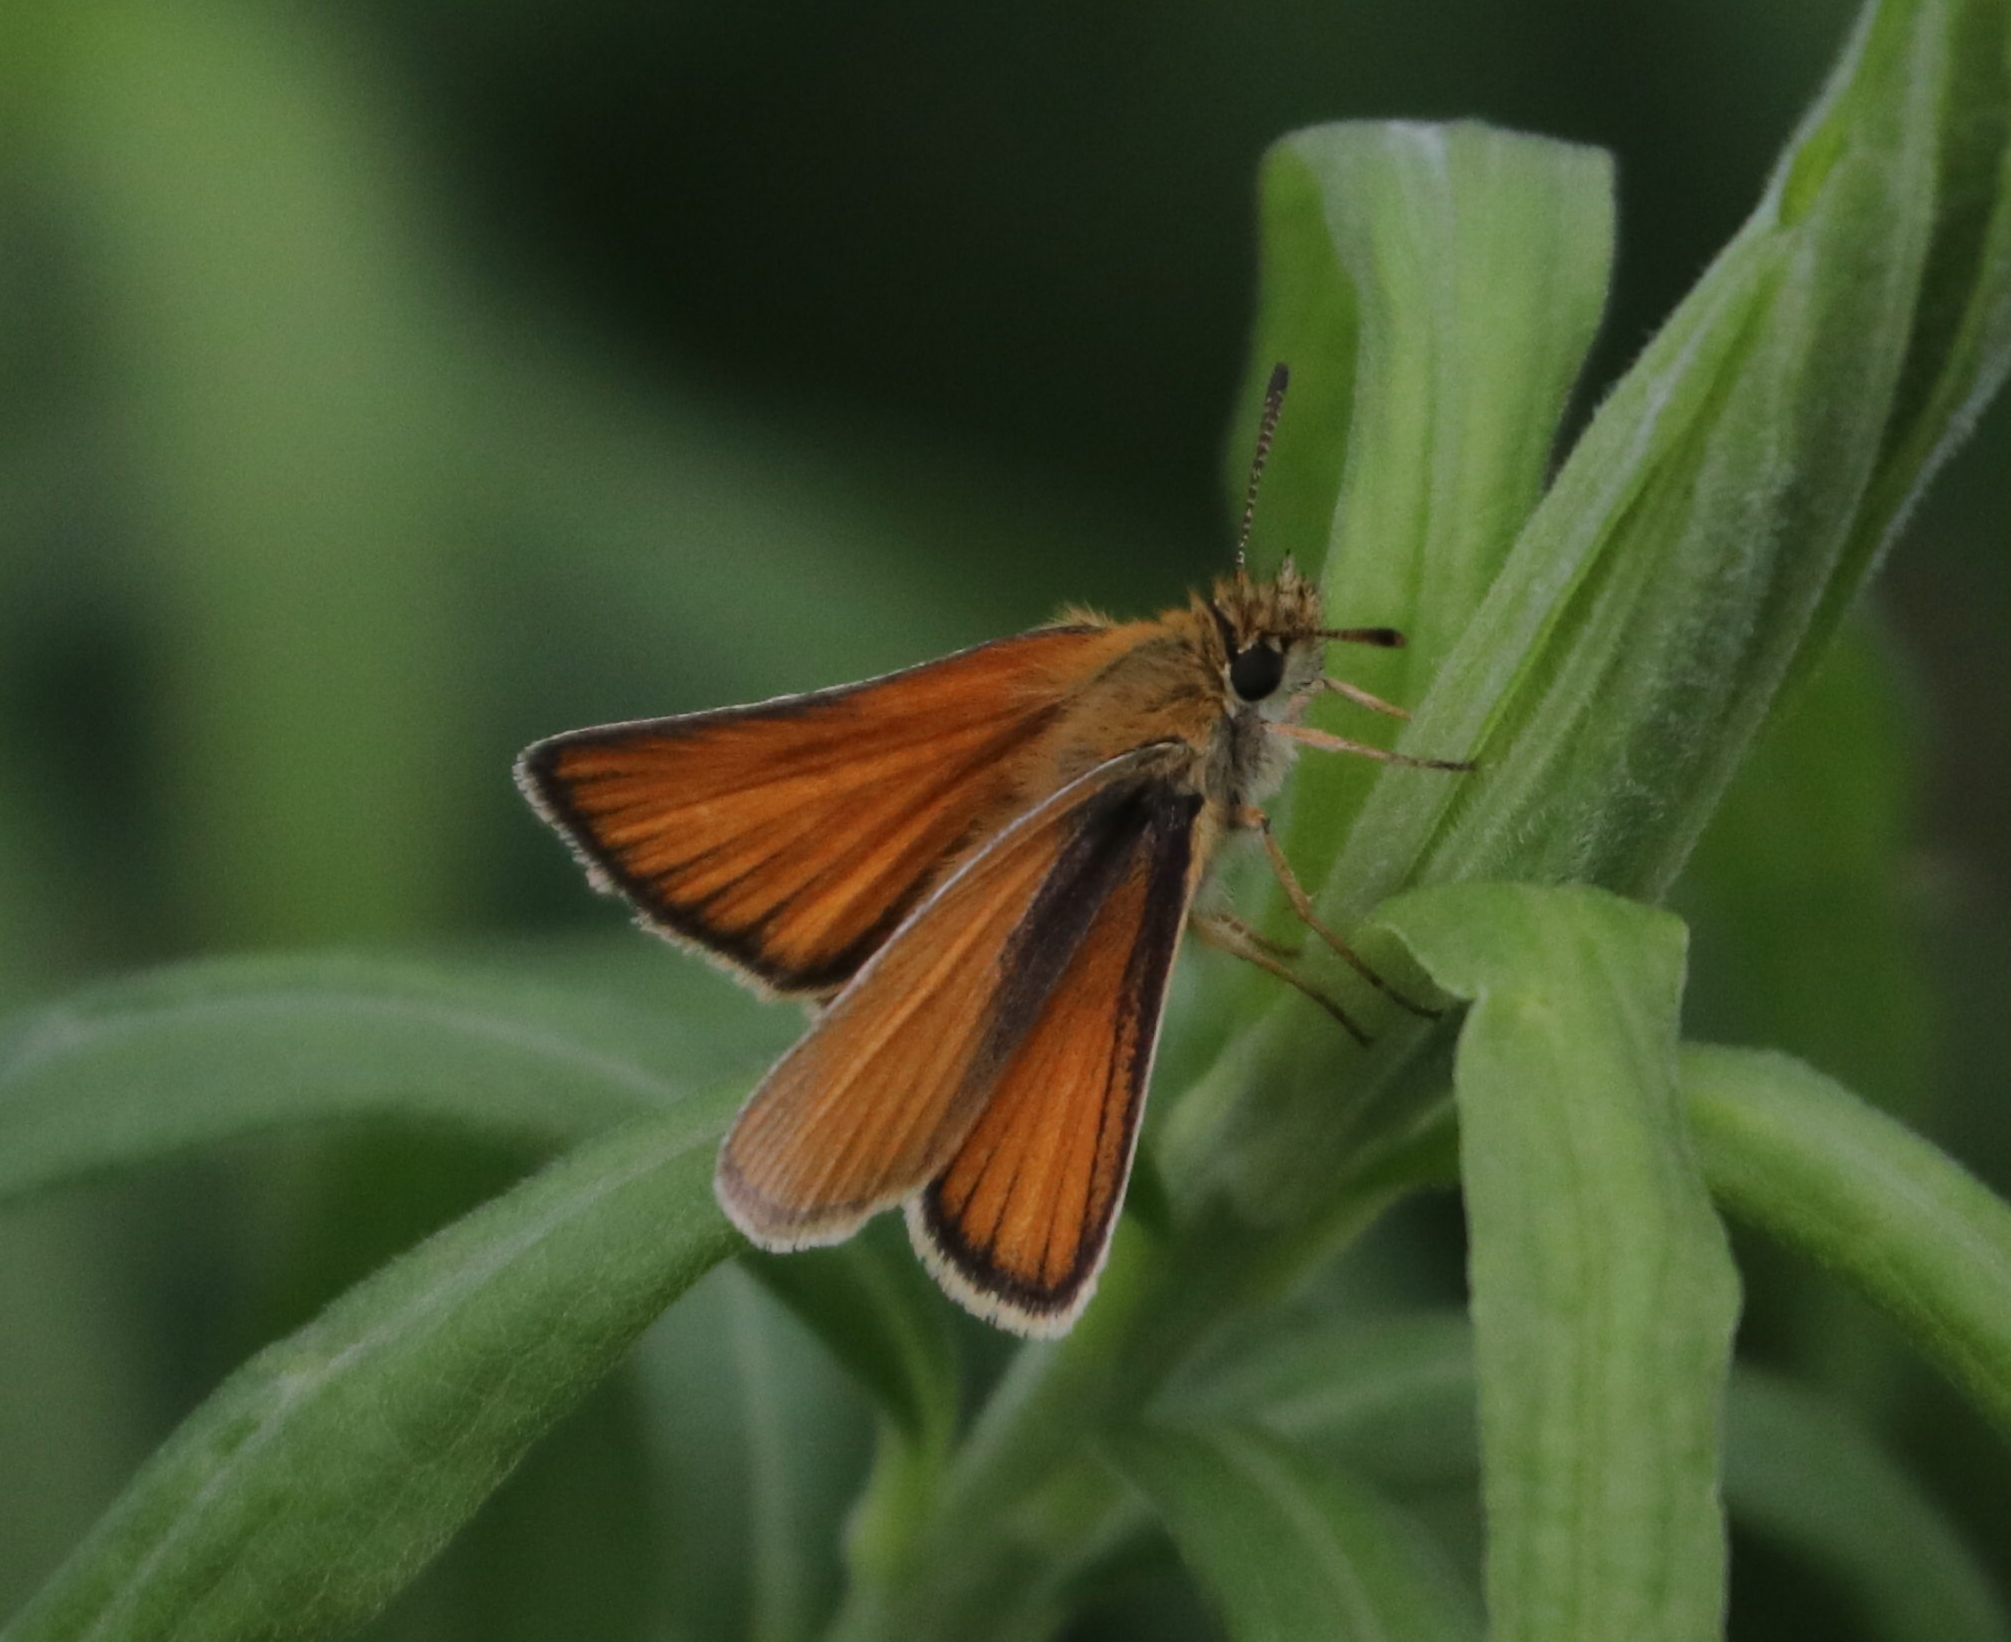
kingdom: Animalia
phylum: Arthropoda
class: Insecta
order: Lepidoptera
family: Hesperiidae
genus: Thymelicus
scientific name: Thymelicus lineola
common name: Essex skipper
